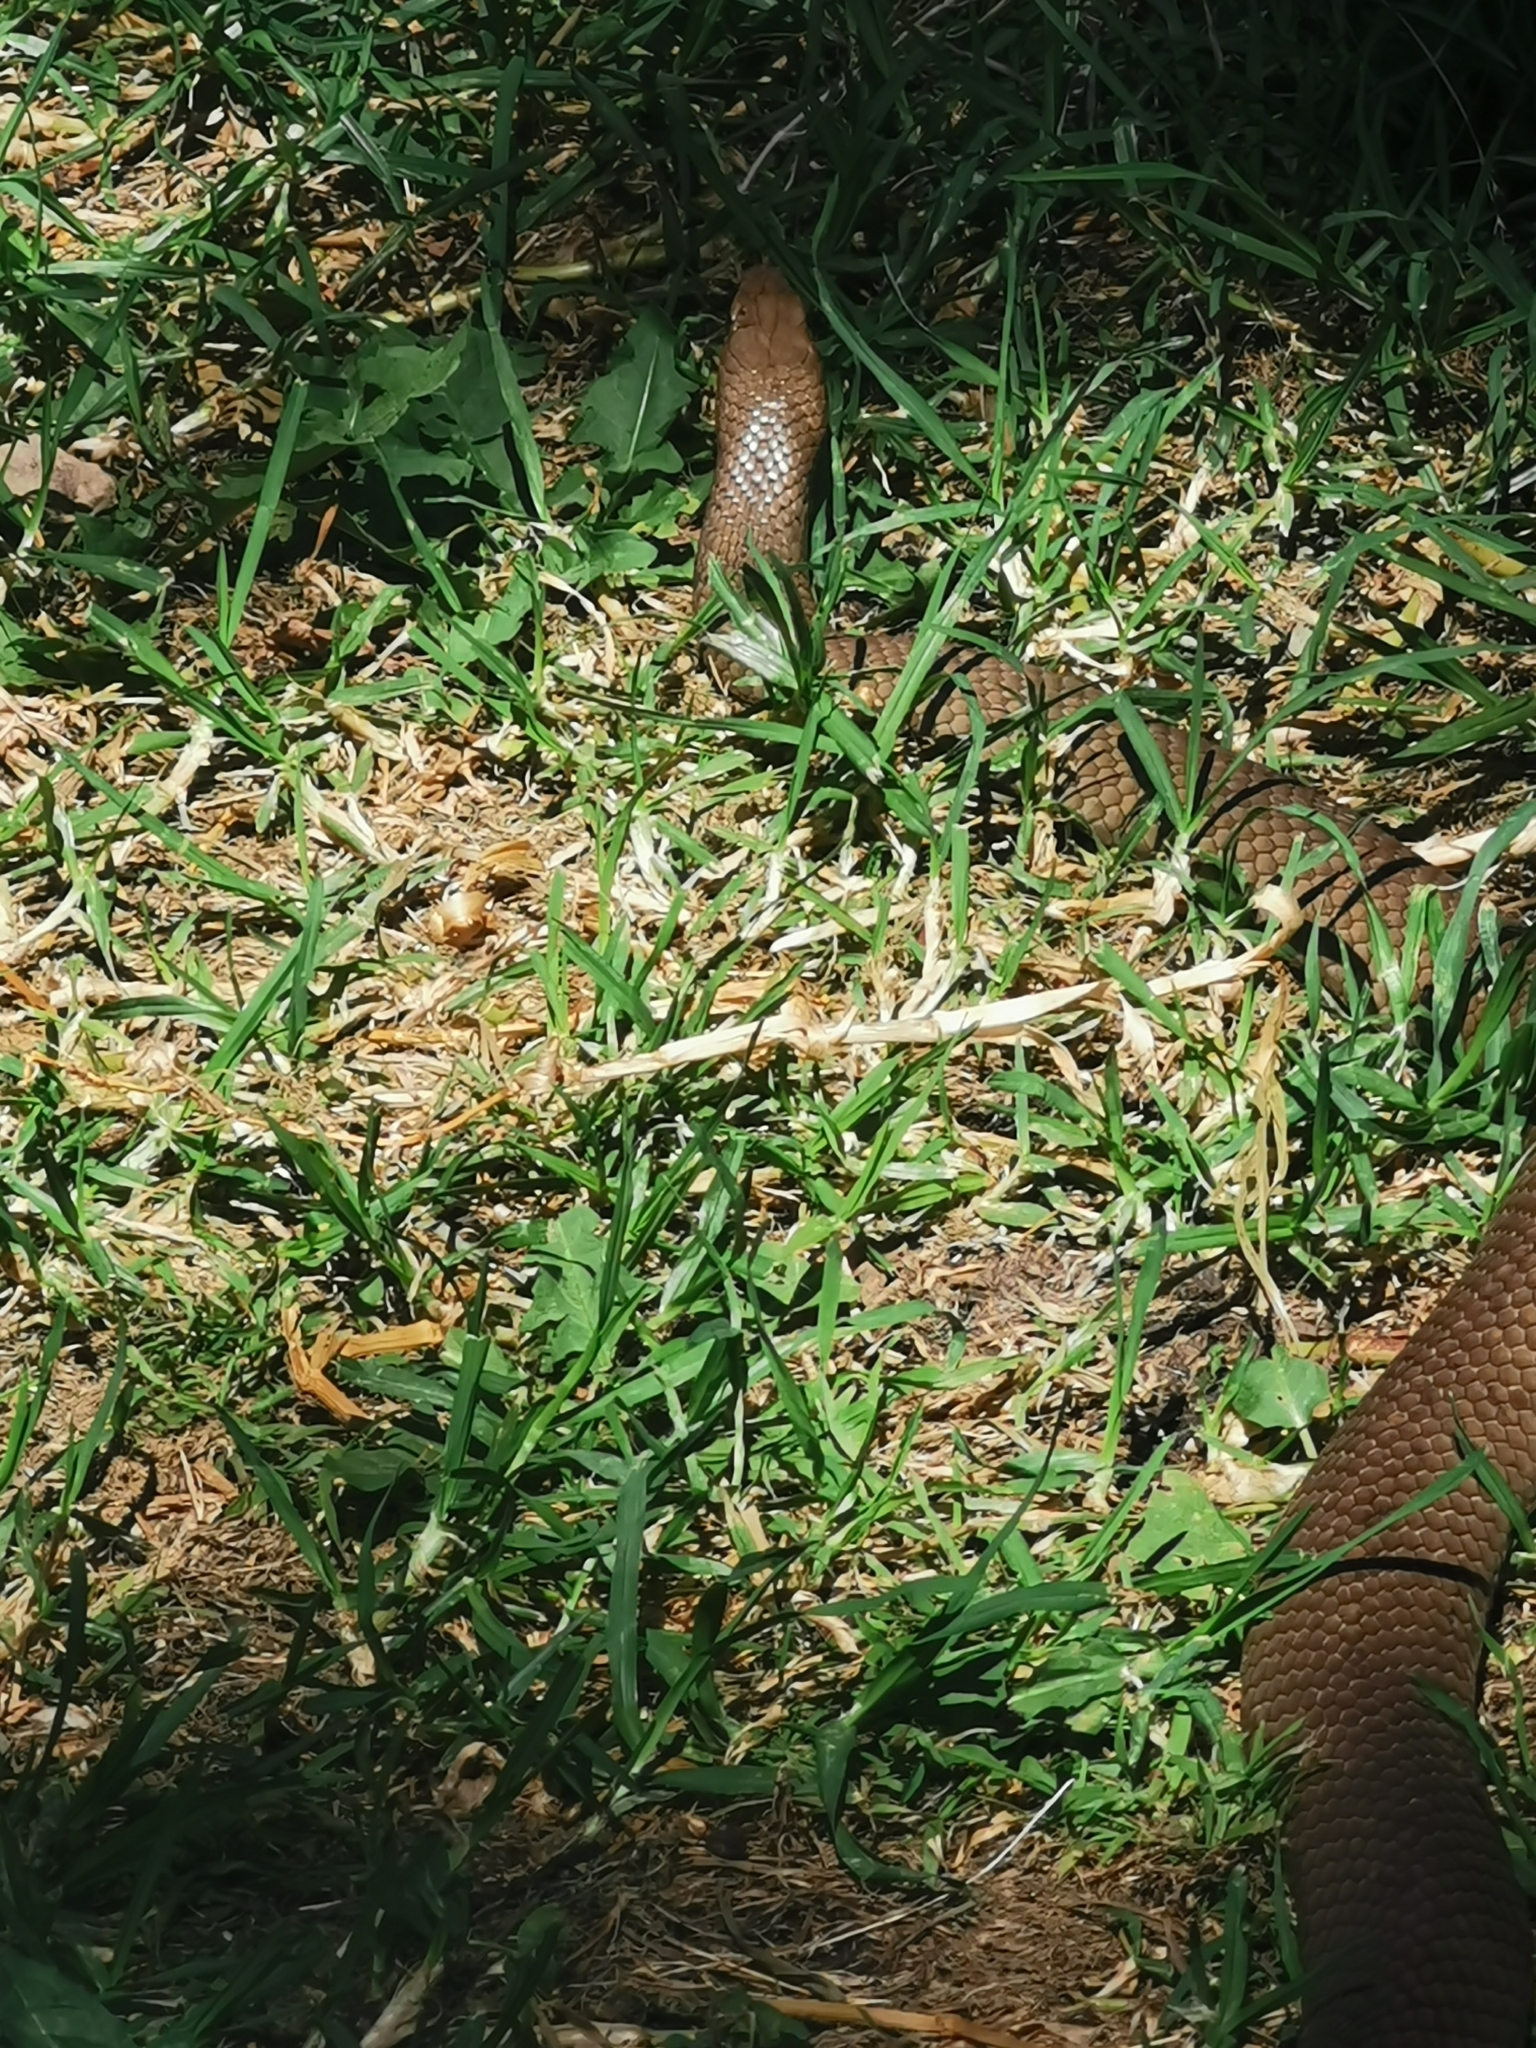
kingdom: Animalia
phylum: Chordata
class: Squamata
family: Elapidae
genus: Pseudonaja
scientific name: Pseudonaja textilis
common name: Eastern brown snake
